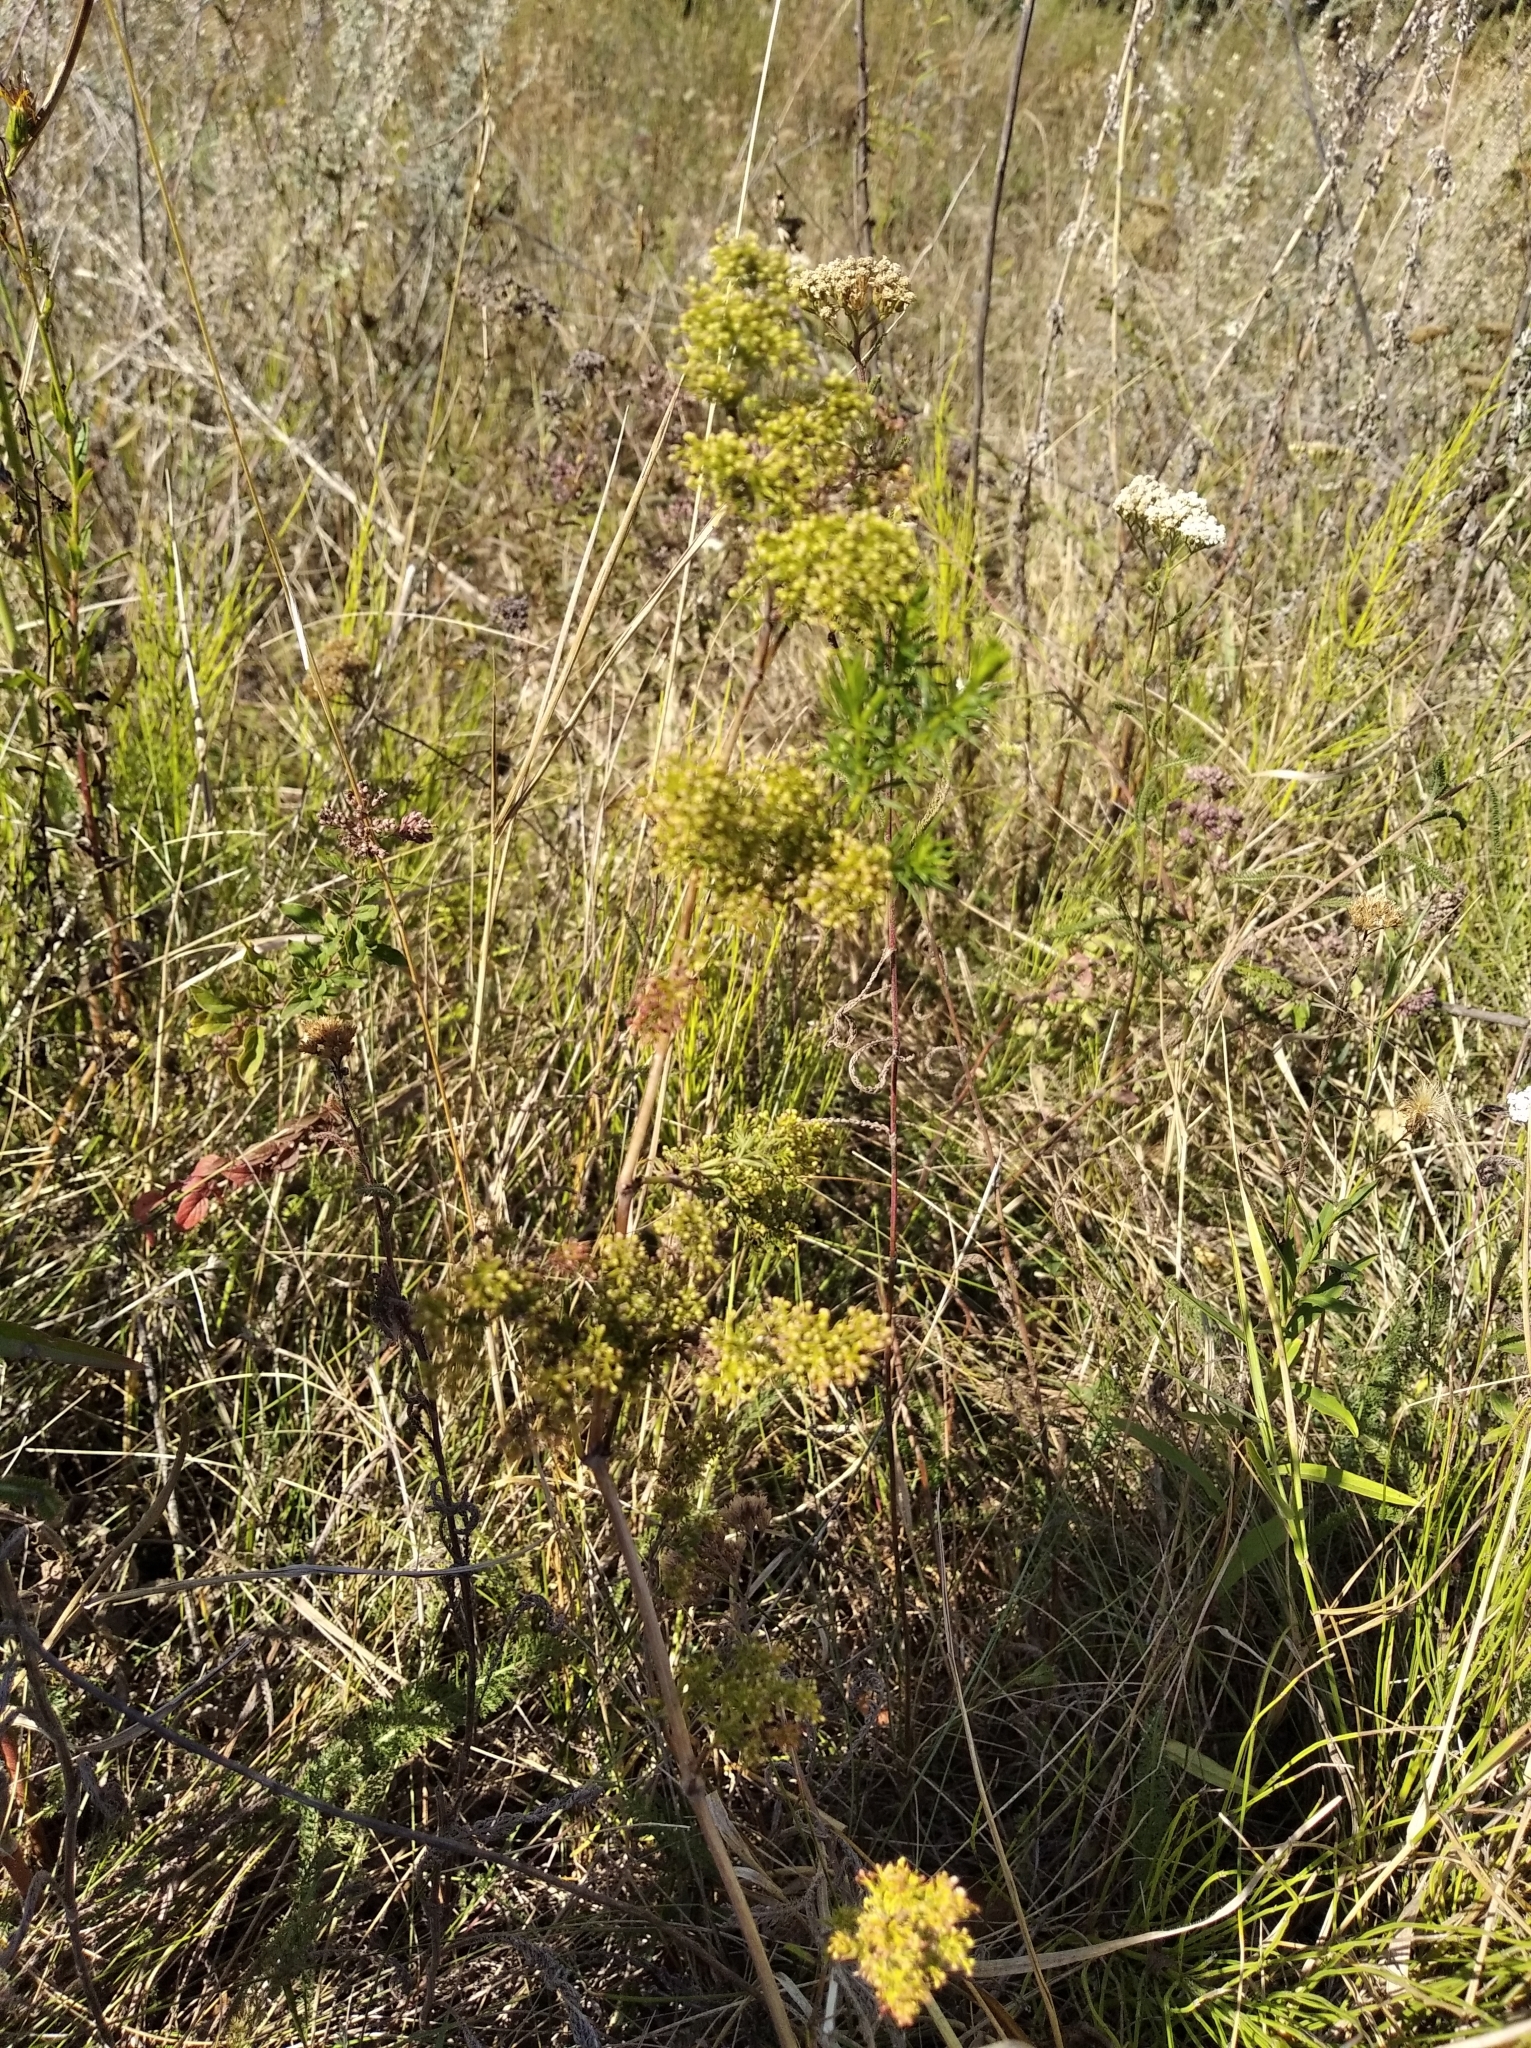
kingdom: Plantae
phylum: Tracheophyta
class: Magnoliopsida
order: Gentianales
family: Rubiaceae
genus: Galium
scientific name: Galium verum
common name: Lady's bedstraw
